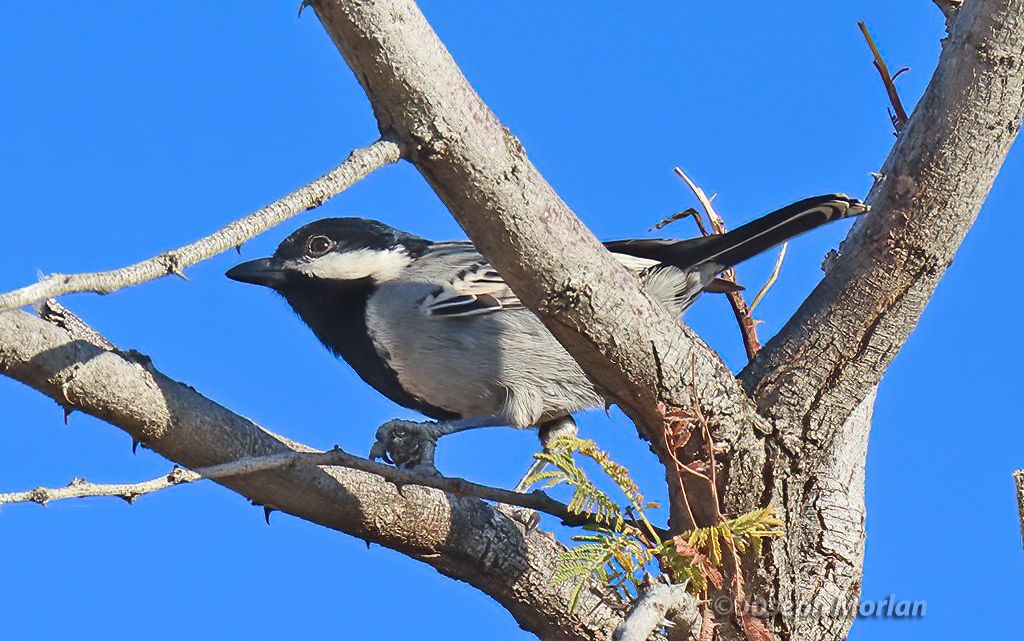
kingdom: Animalia
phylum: Chordata
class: Aves
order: Passeriformes
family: Paridae
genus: Parus
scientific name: Parus cinerascens
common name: Ashy tit
